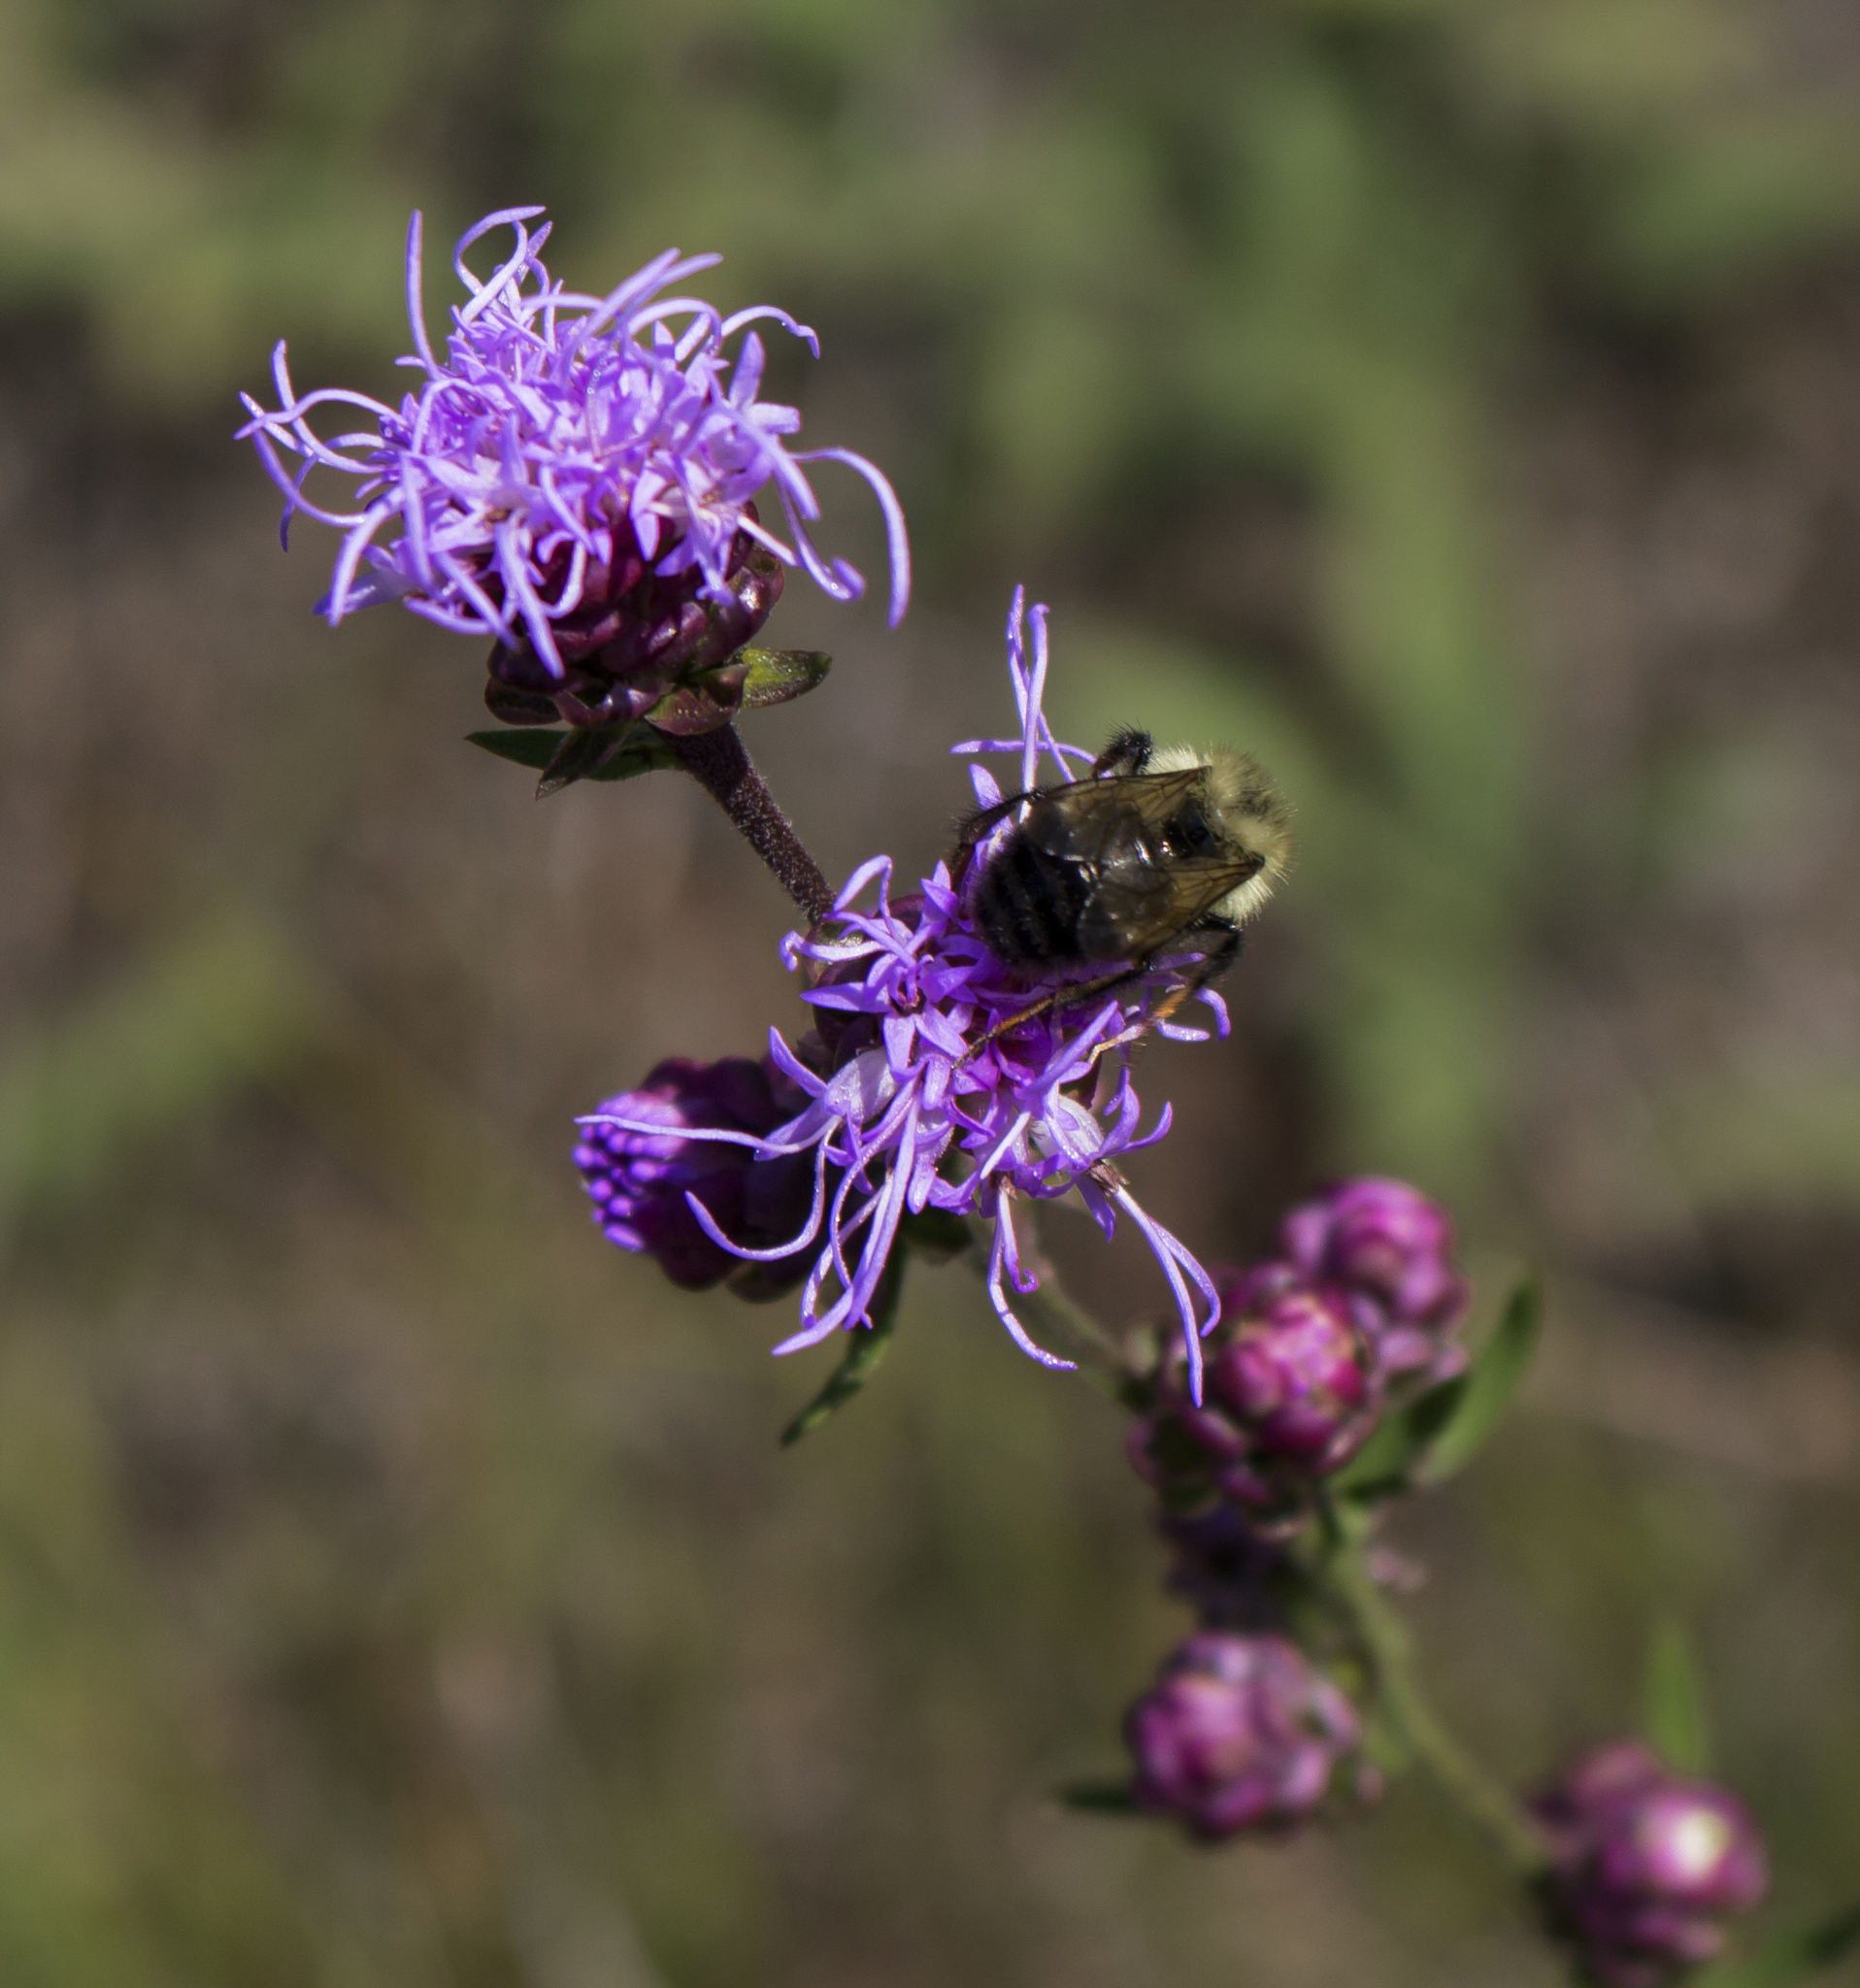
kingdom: Plantae
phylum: Tracheophyta
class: Magnoliopsida
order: Asterales
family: Asteraceae
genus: Liatris
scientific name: Liatris aspera
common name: Lacerate blazing-star
